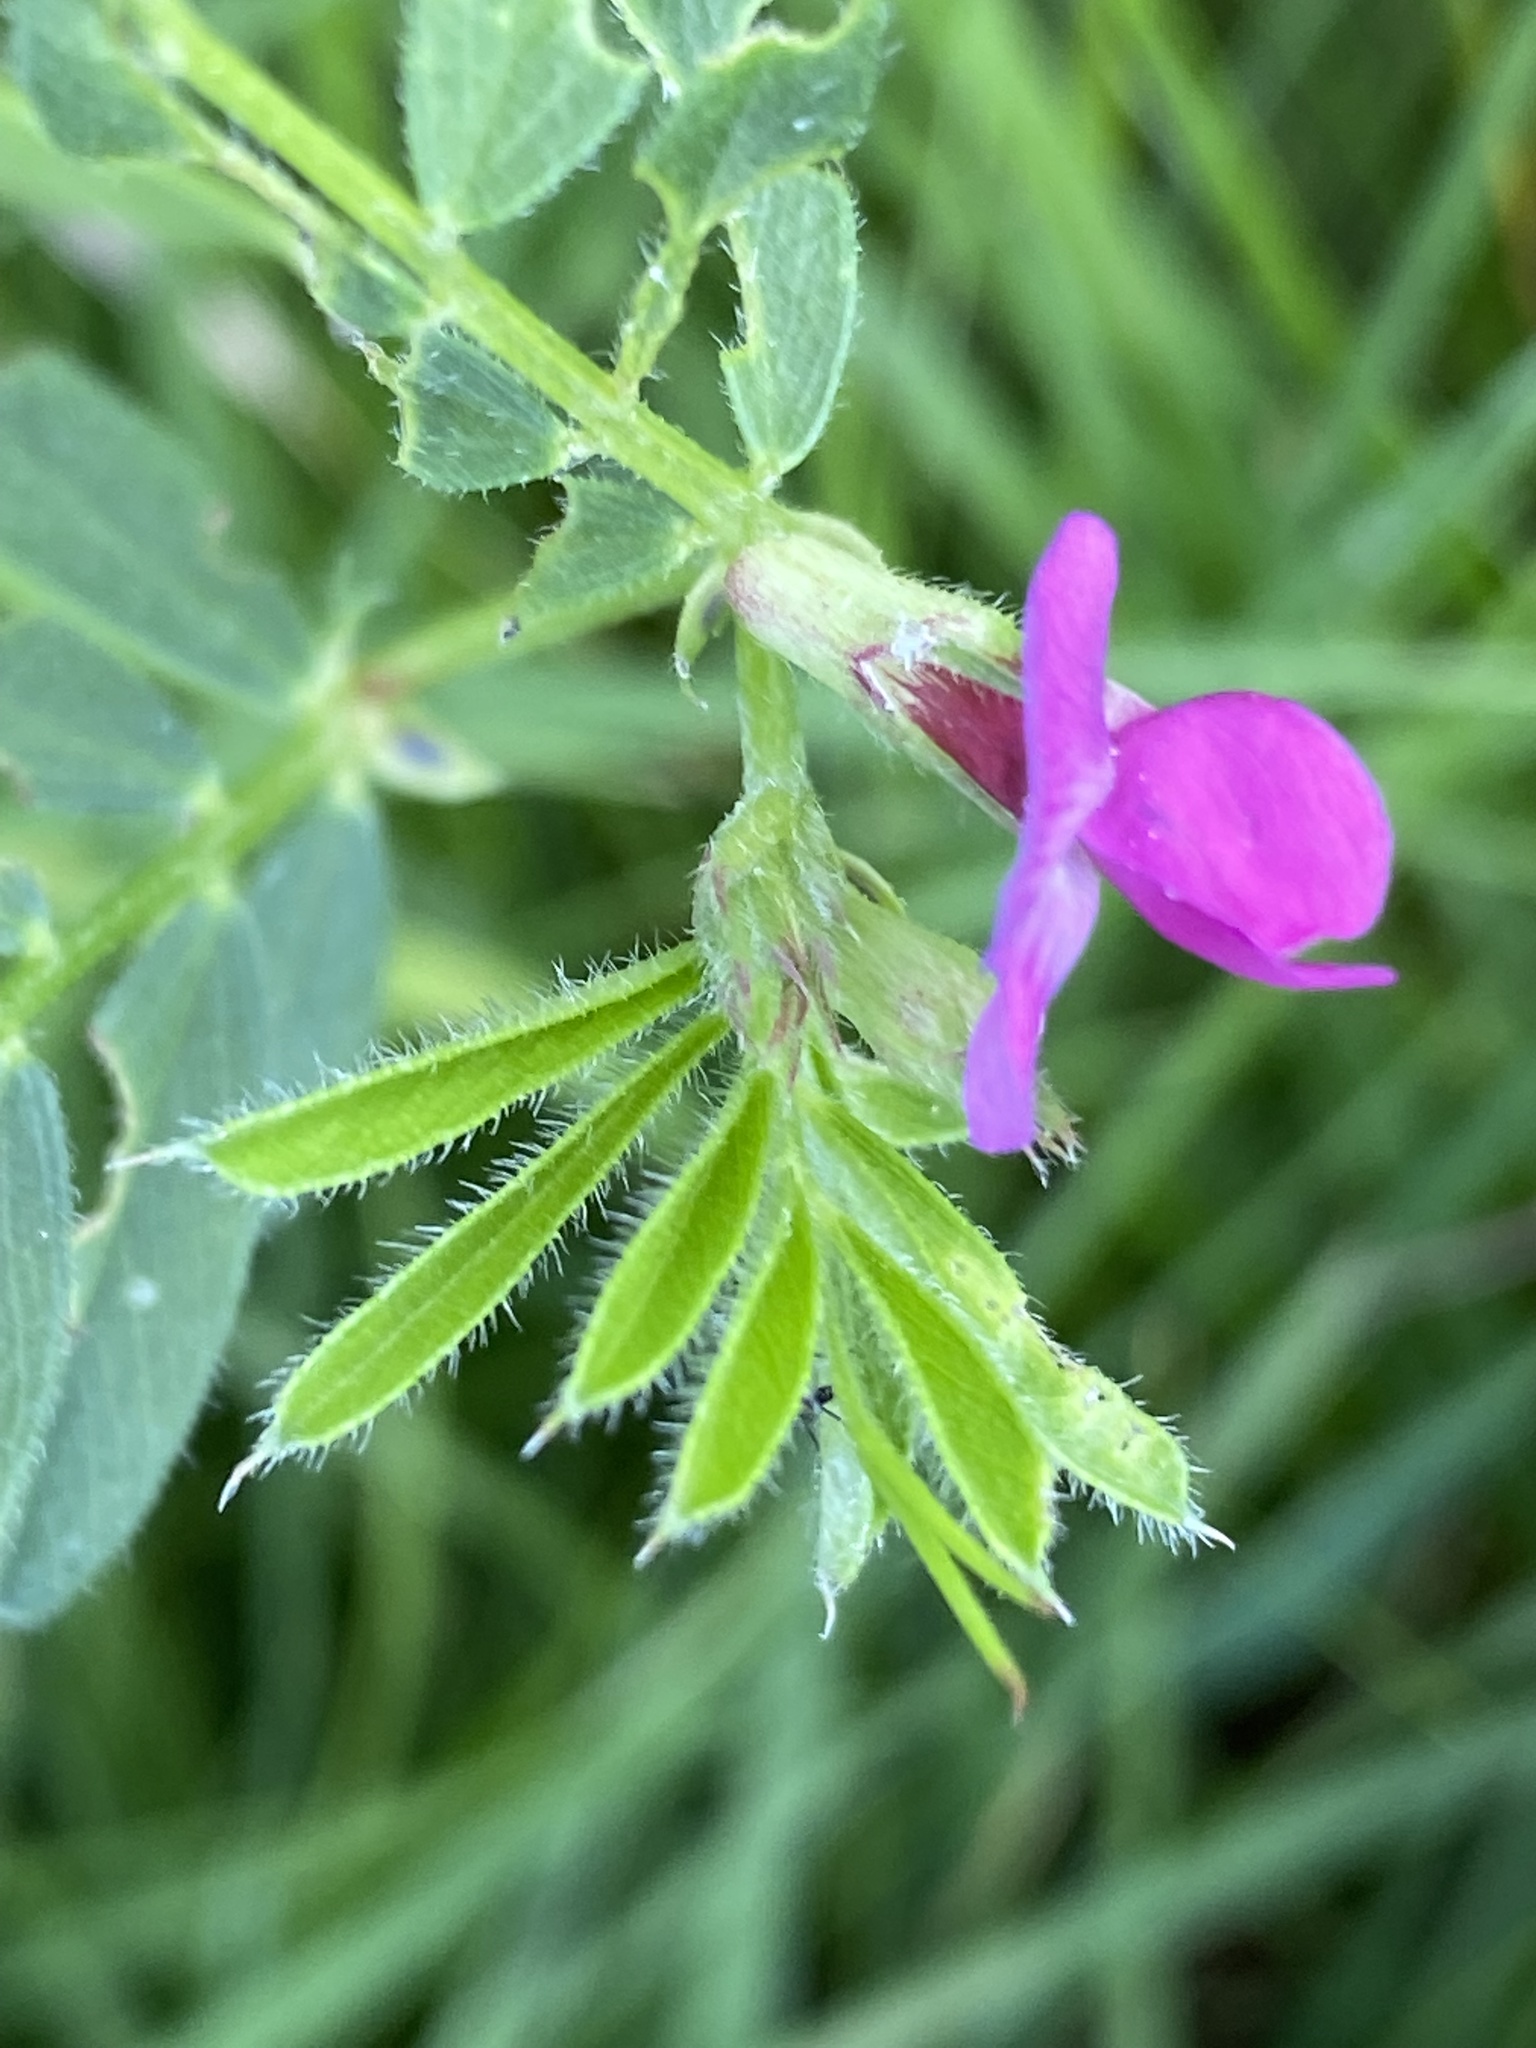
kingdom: Plantae
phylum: Tracheophyta
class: Magnoliopsida
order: Fabales
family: Fabaceae
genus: Vicia
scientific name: Vicia sativa
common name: Garden vetch
